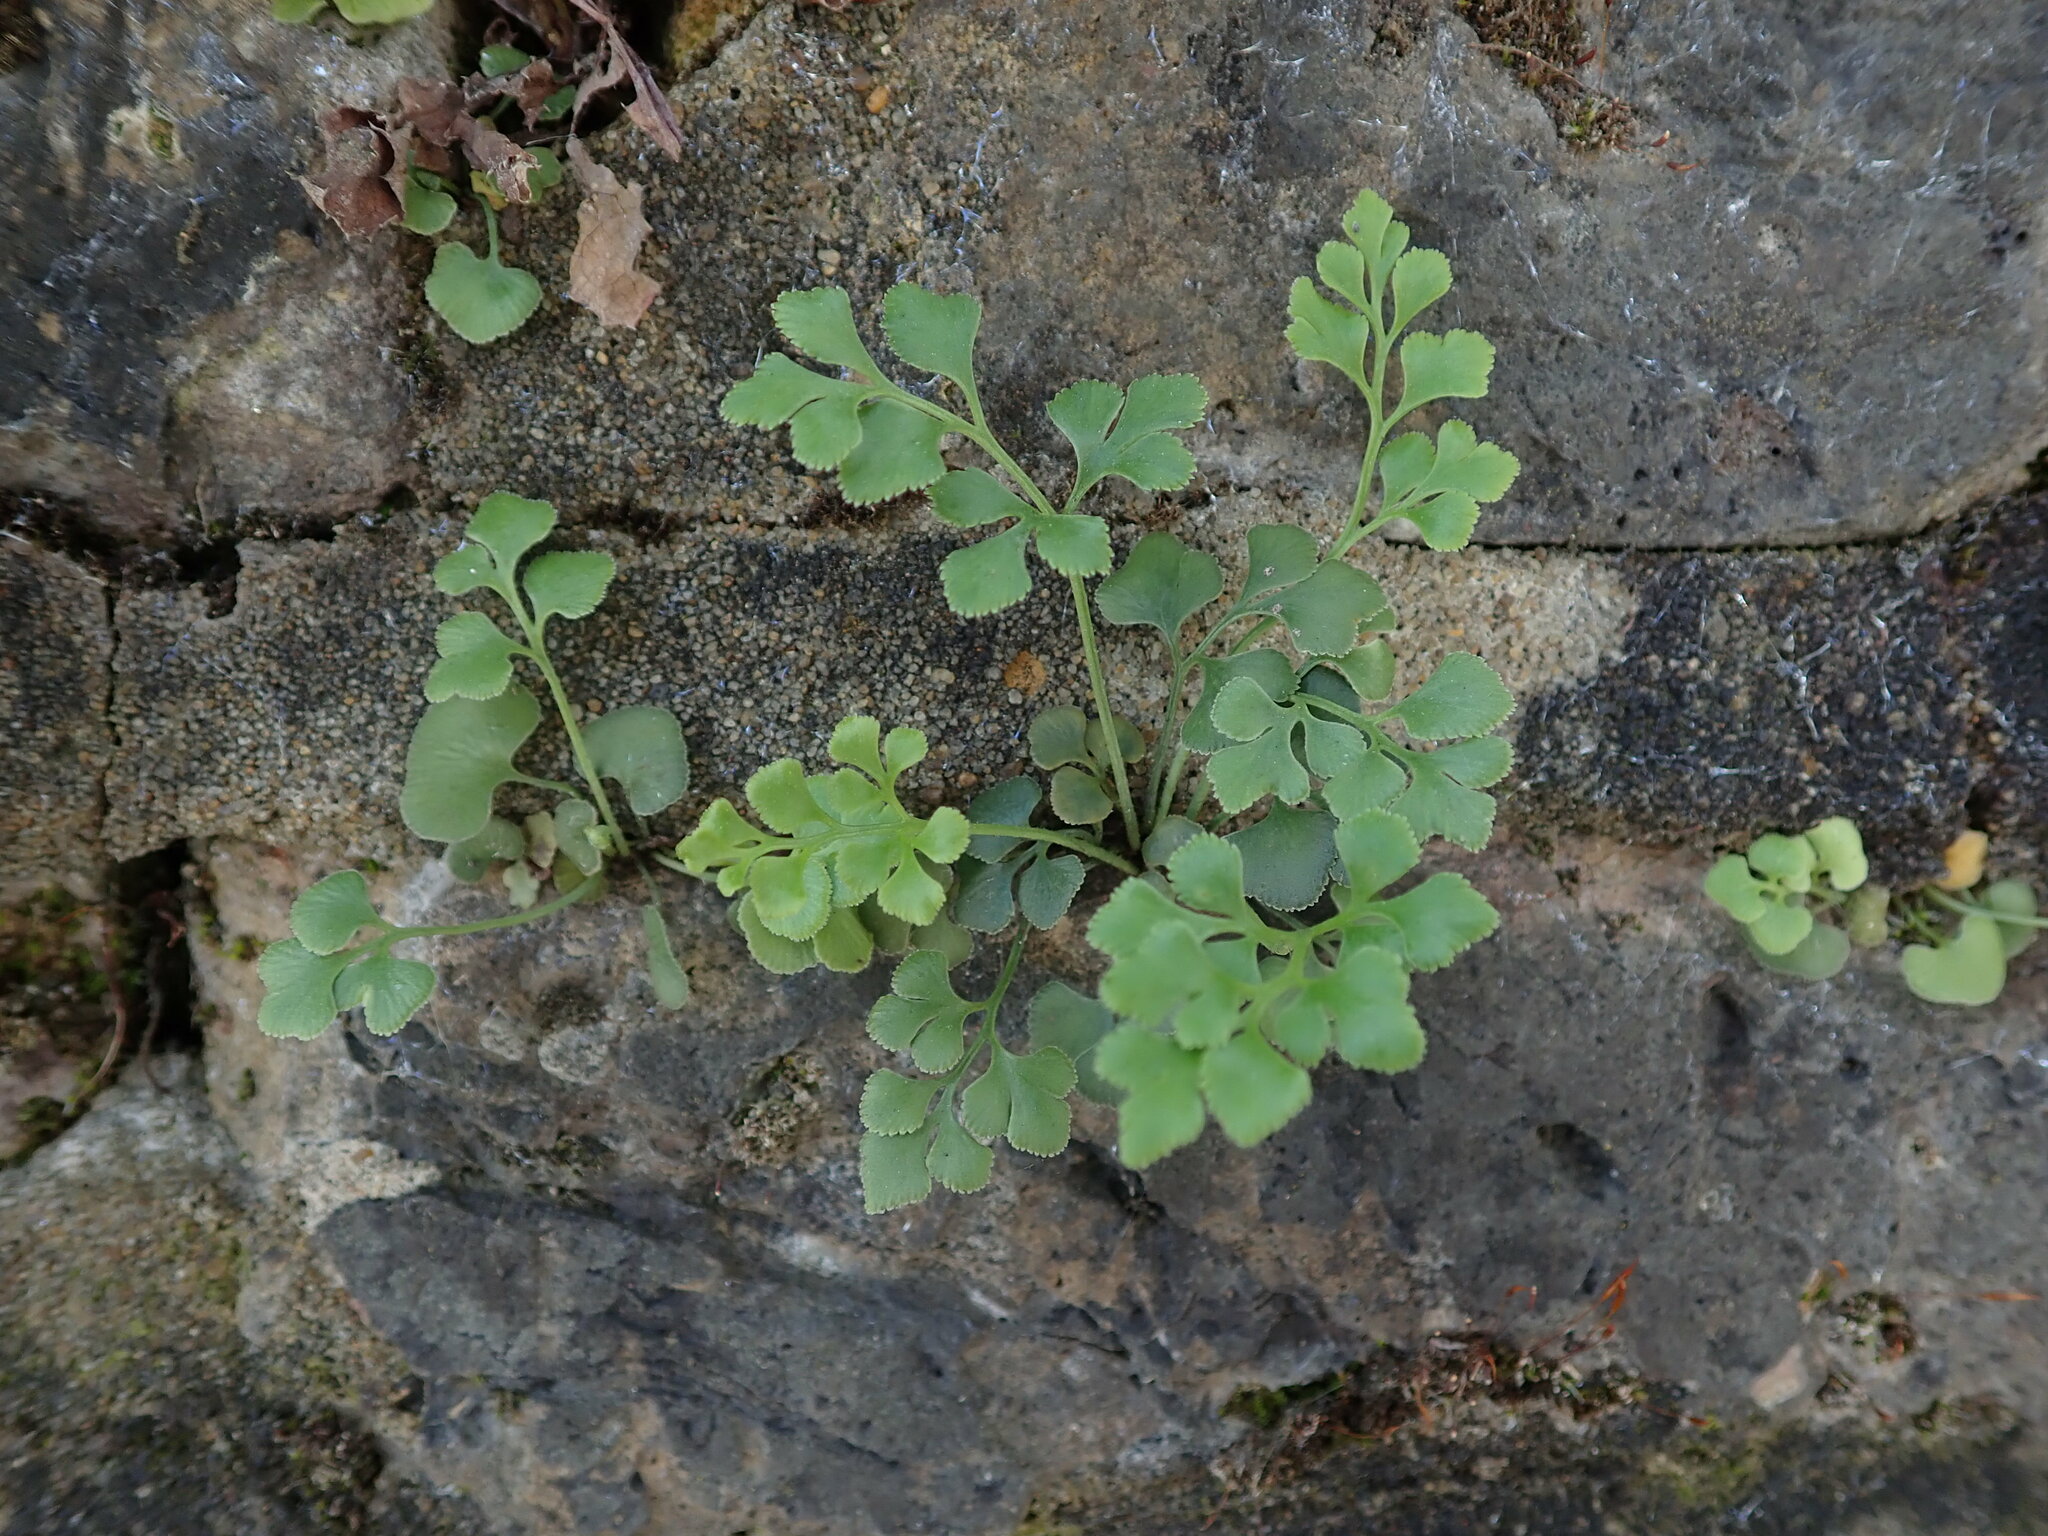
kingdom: Plantae
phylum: Tracheophyta
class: Polypodiopsida
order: Polypodiales
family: Aspleniaceae
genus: Asplenium
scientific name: Asplenium ruta-muraria
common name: Wall-rue
